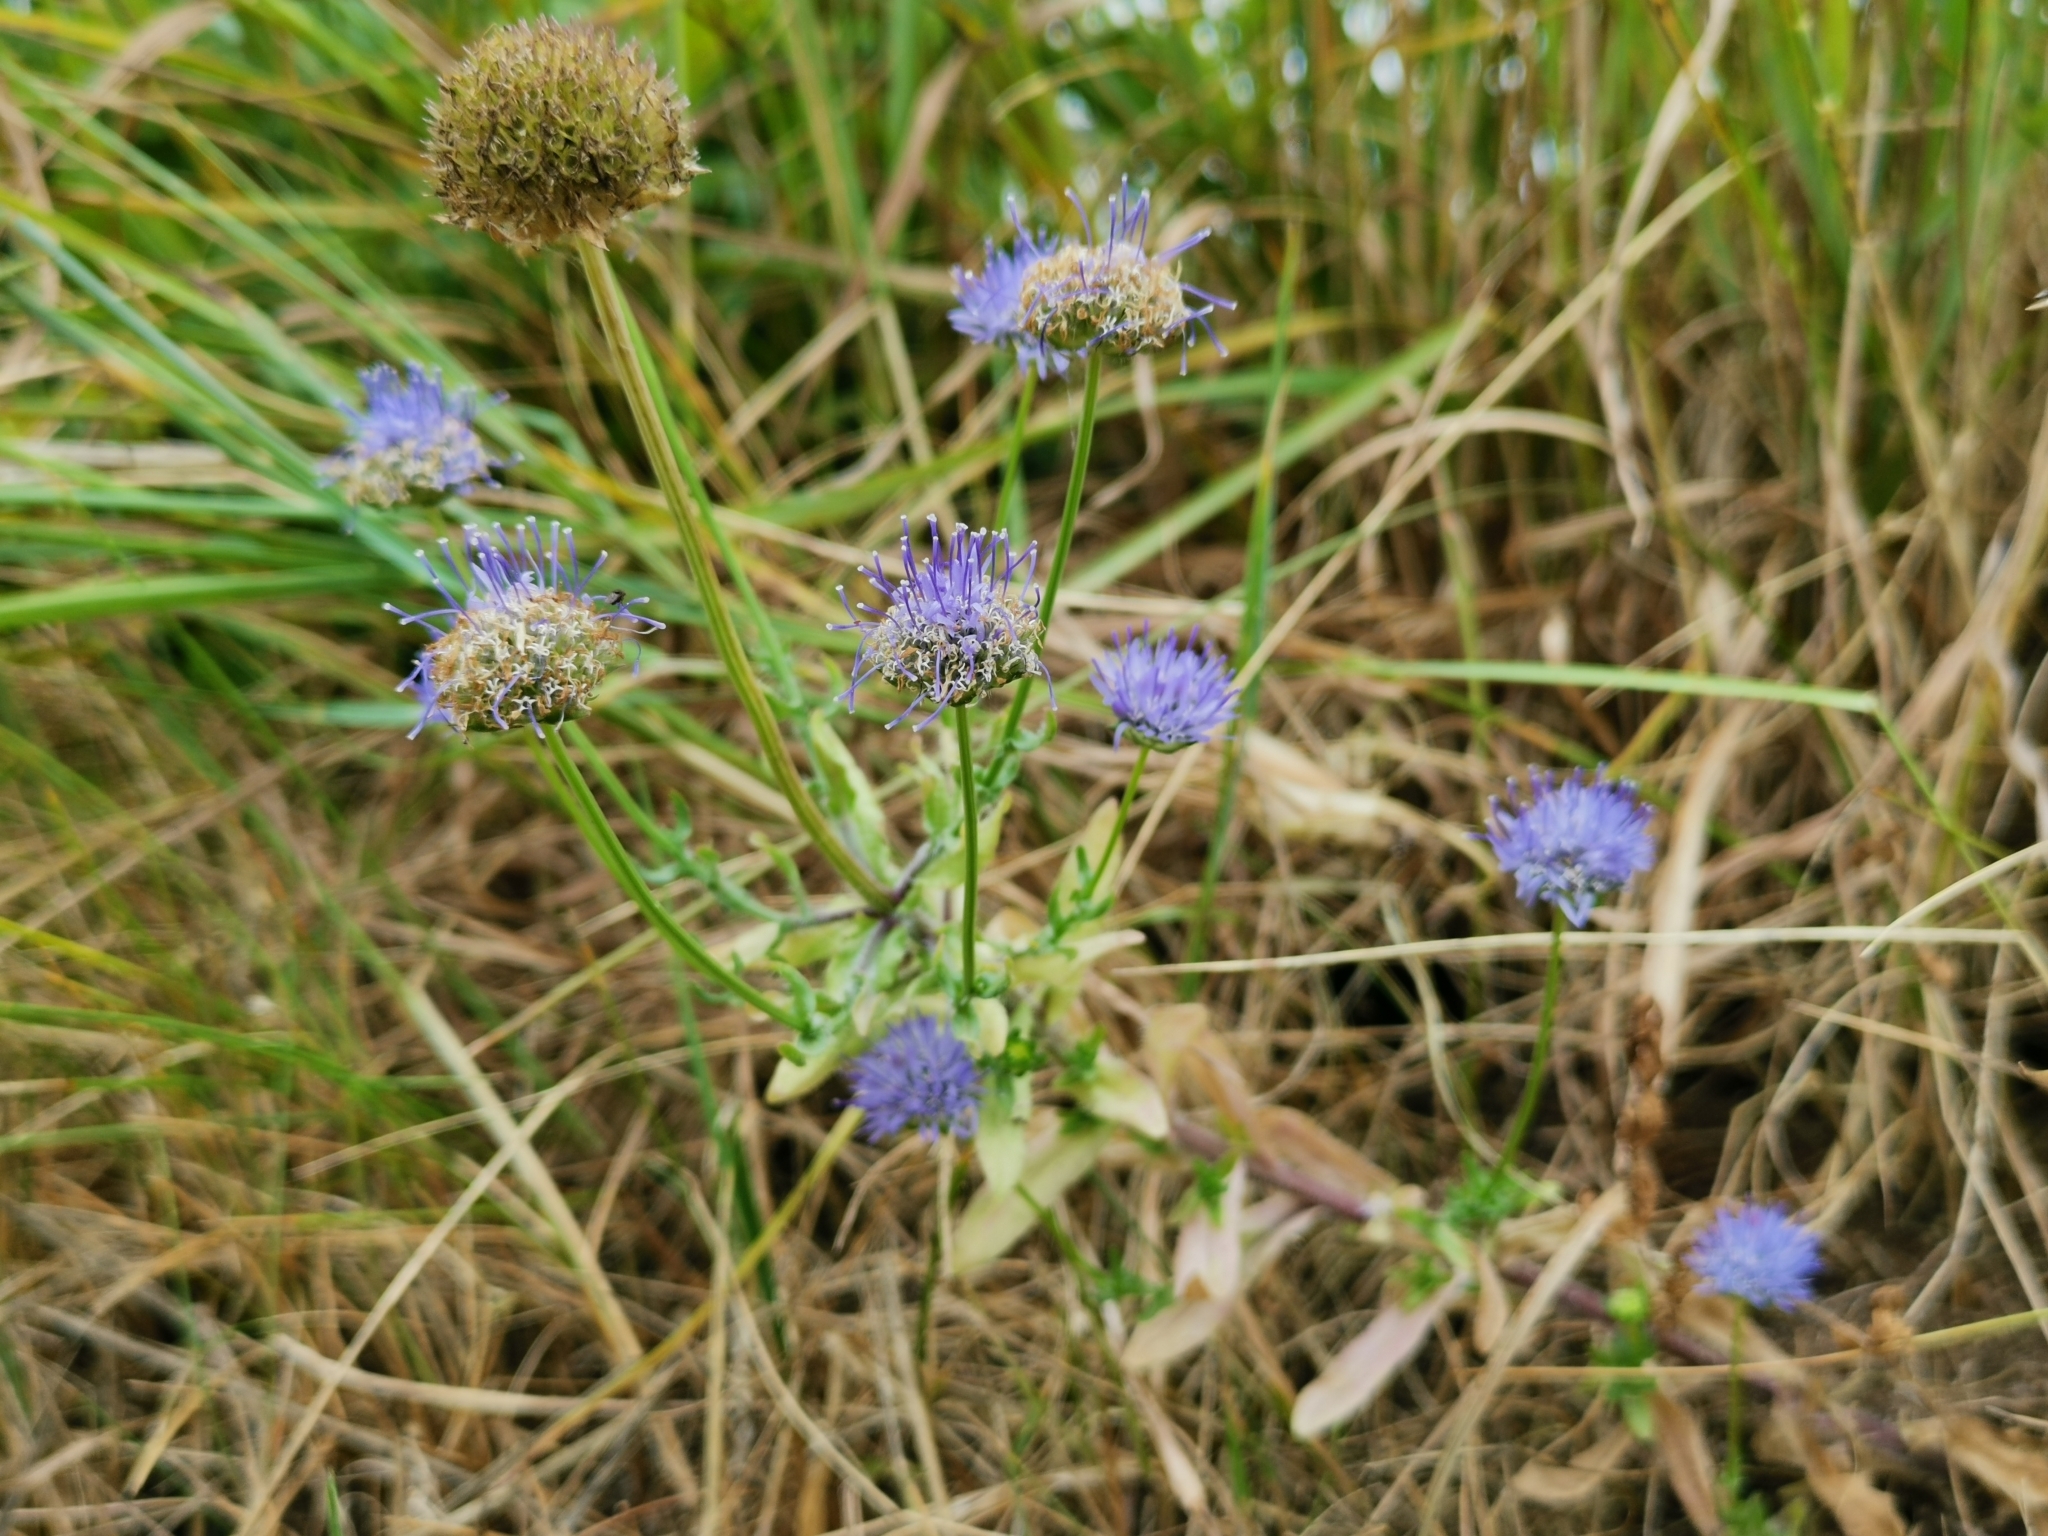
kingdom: Plantae
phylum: Tracheophyta
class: Magnoliopsida
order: Asterales
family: Campanulaceae
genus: Jasione
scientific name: Jasione montana
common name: Sheep's-bit
